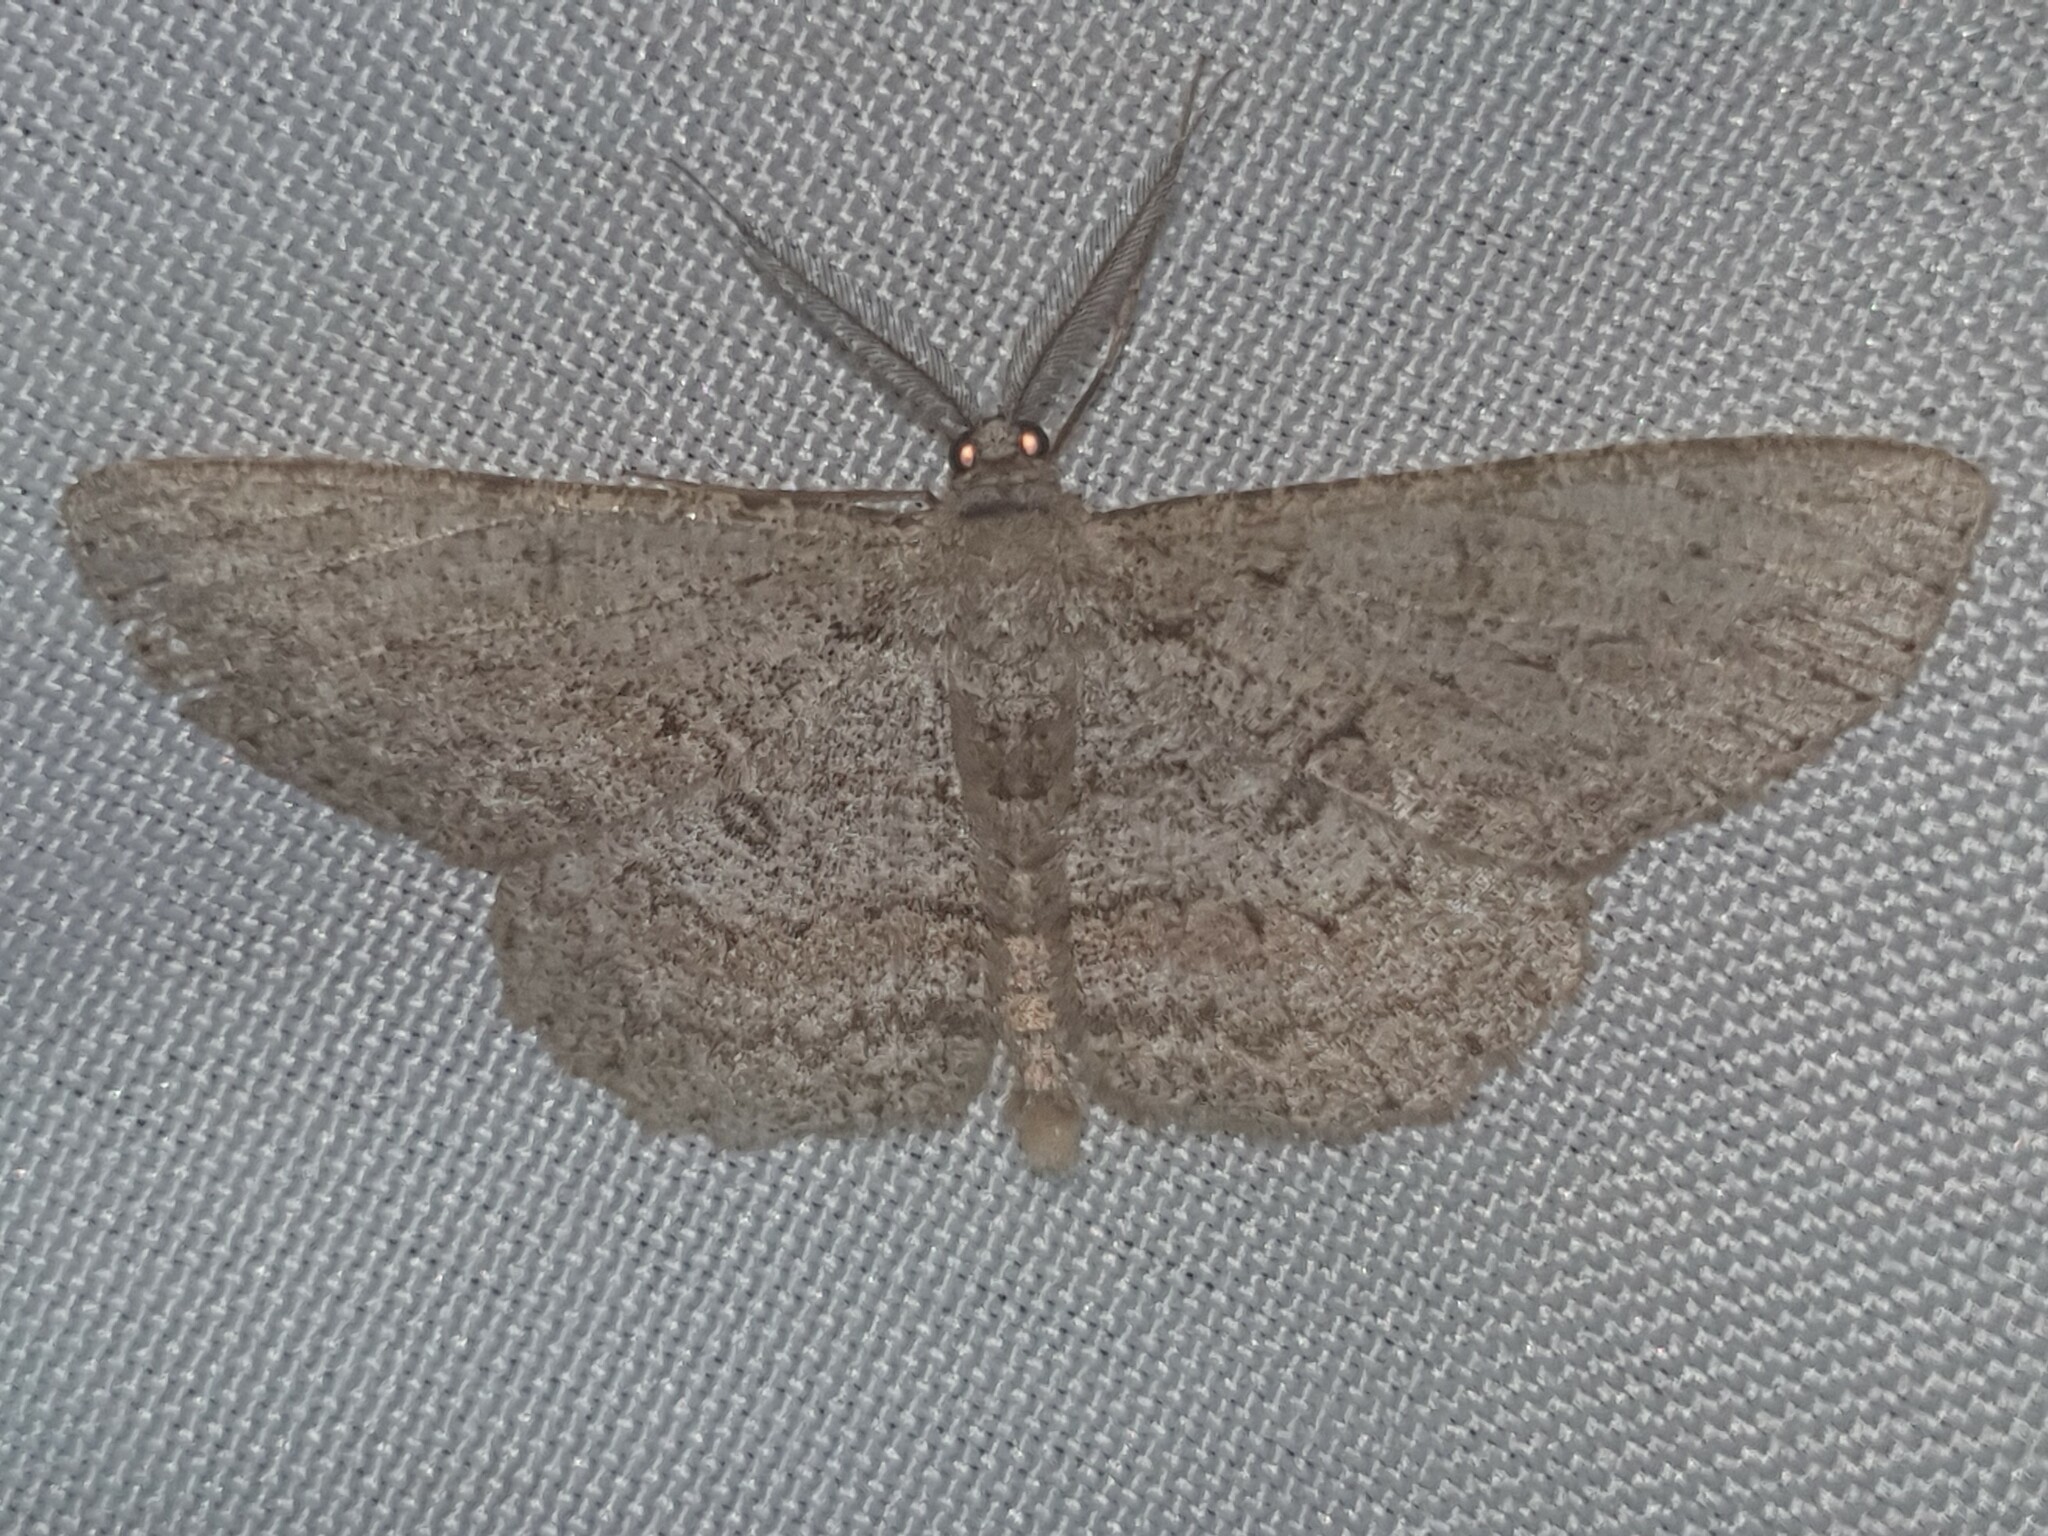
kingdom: Animalia
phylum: Arthropoda
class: Insecta
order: Lepidoptera
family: Geometridae
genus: Hypomecis
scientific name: Hypomecis punctinalis
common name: Pale oak beauty
